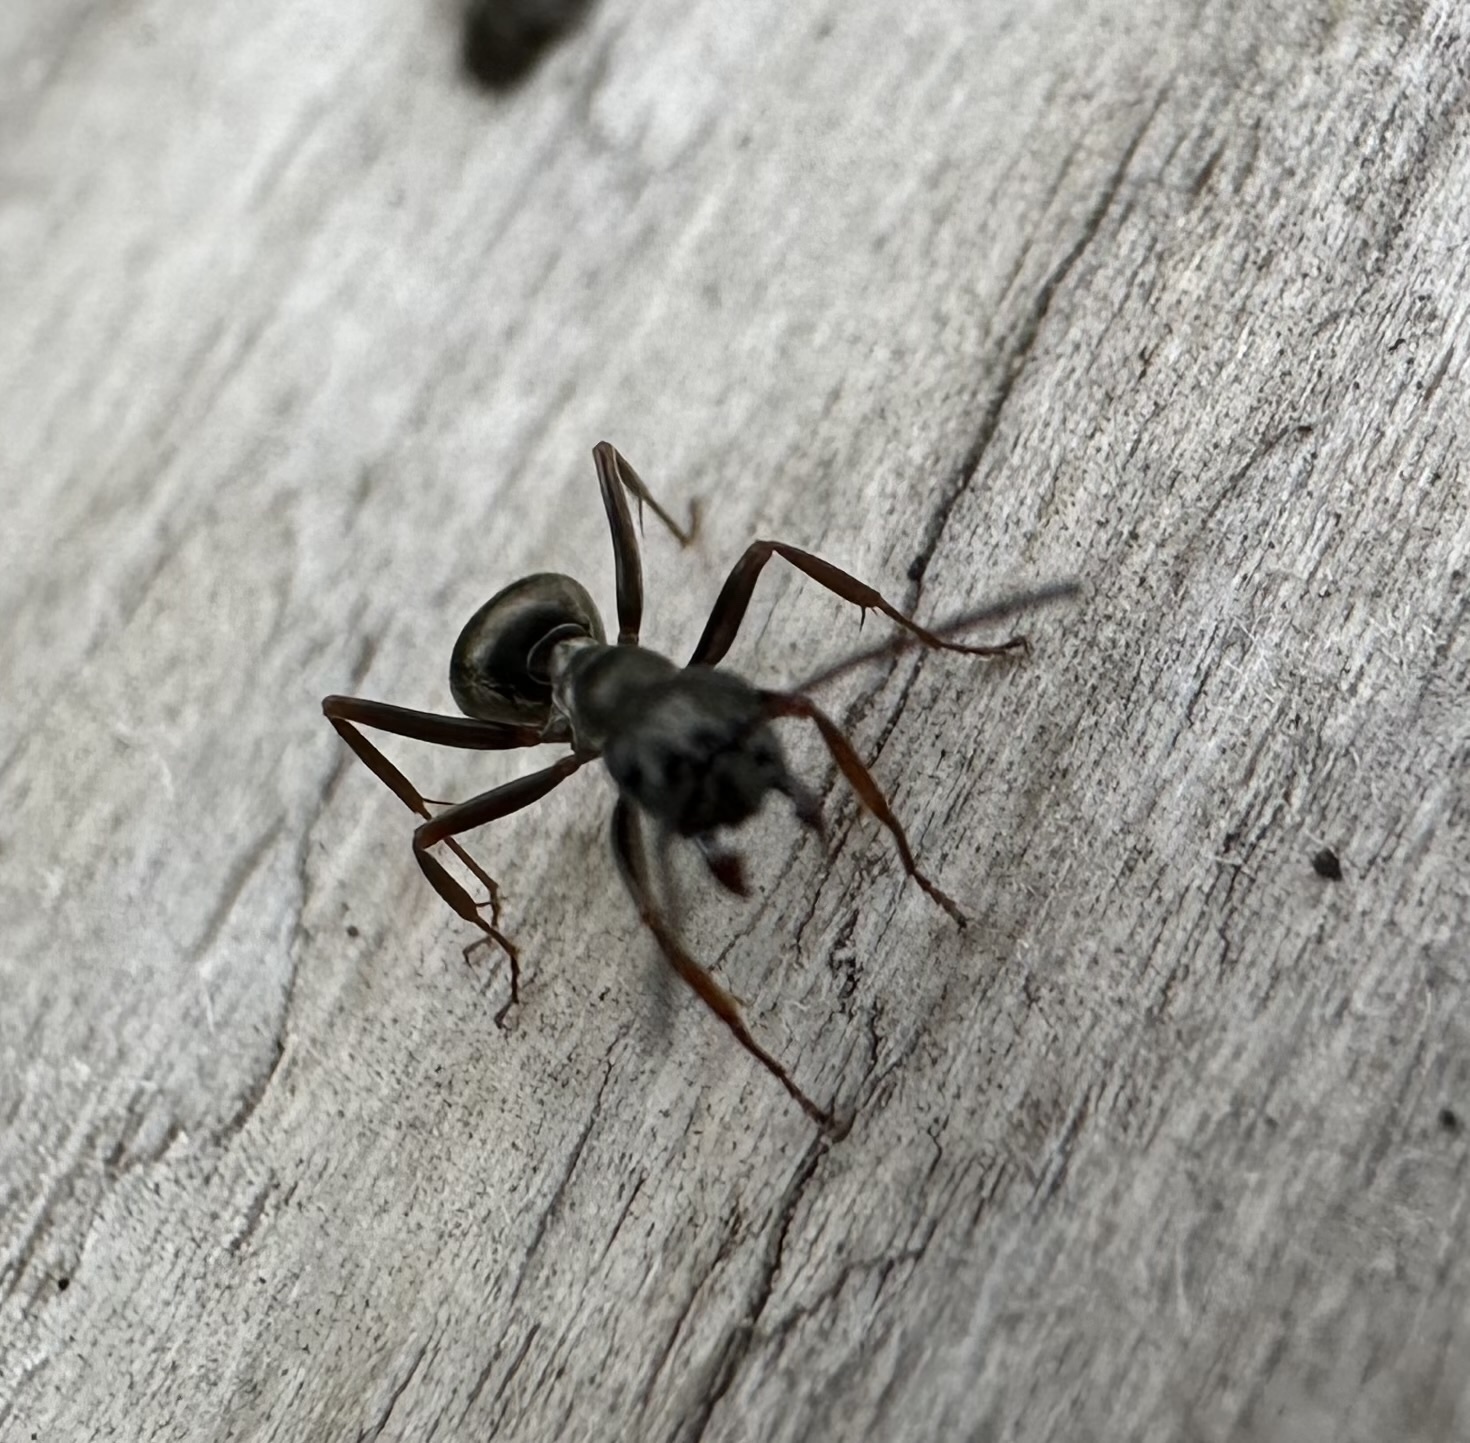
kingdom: Animalia
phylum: Arthropoda
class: Insecta
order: Hymenoptera
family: Formicidae
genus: Formica
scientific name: Formica fusca
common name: Silky ant
